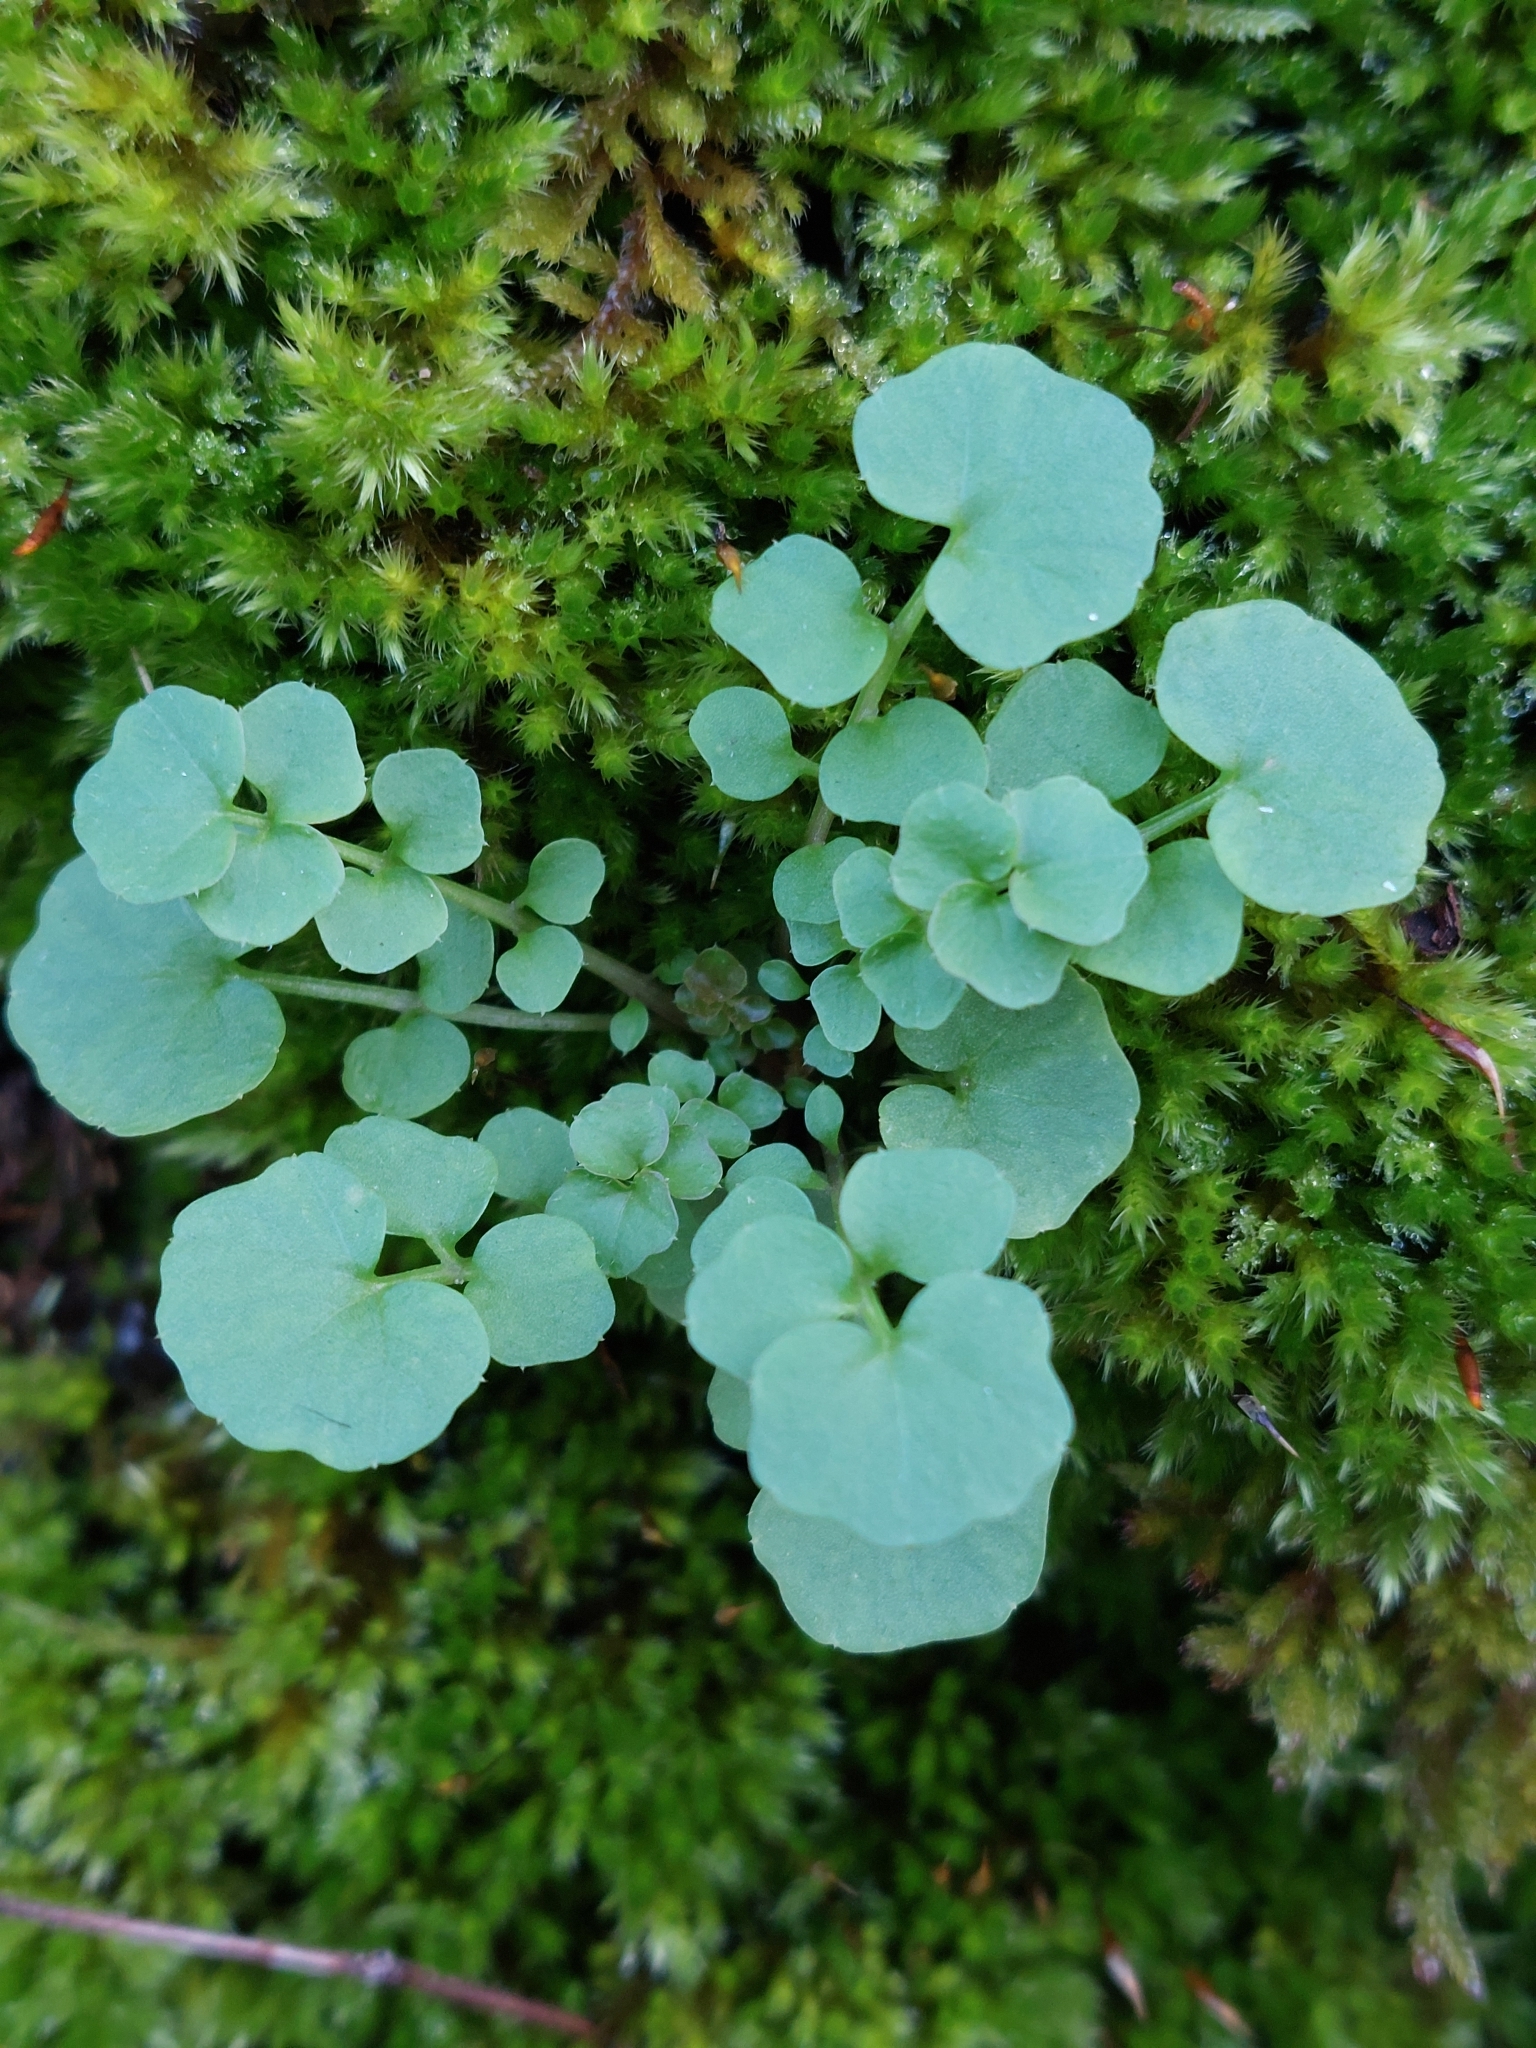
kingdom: Plantae
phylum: Tracheophyta
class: Magnoliopsida
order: Brassicales
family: Brassicaceae
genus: Cardamine
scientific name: Cardamine hirsuta
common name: Hairy bittercress
